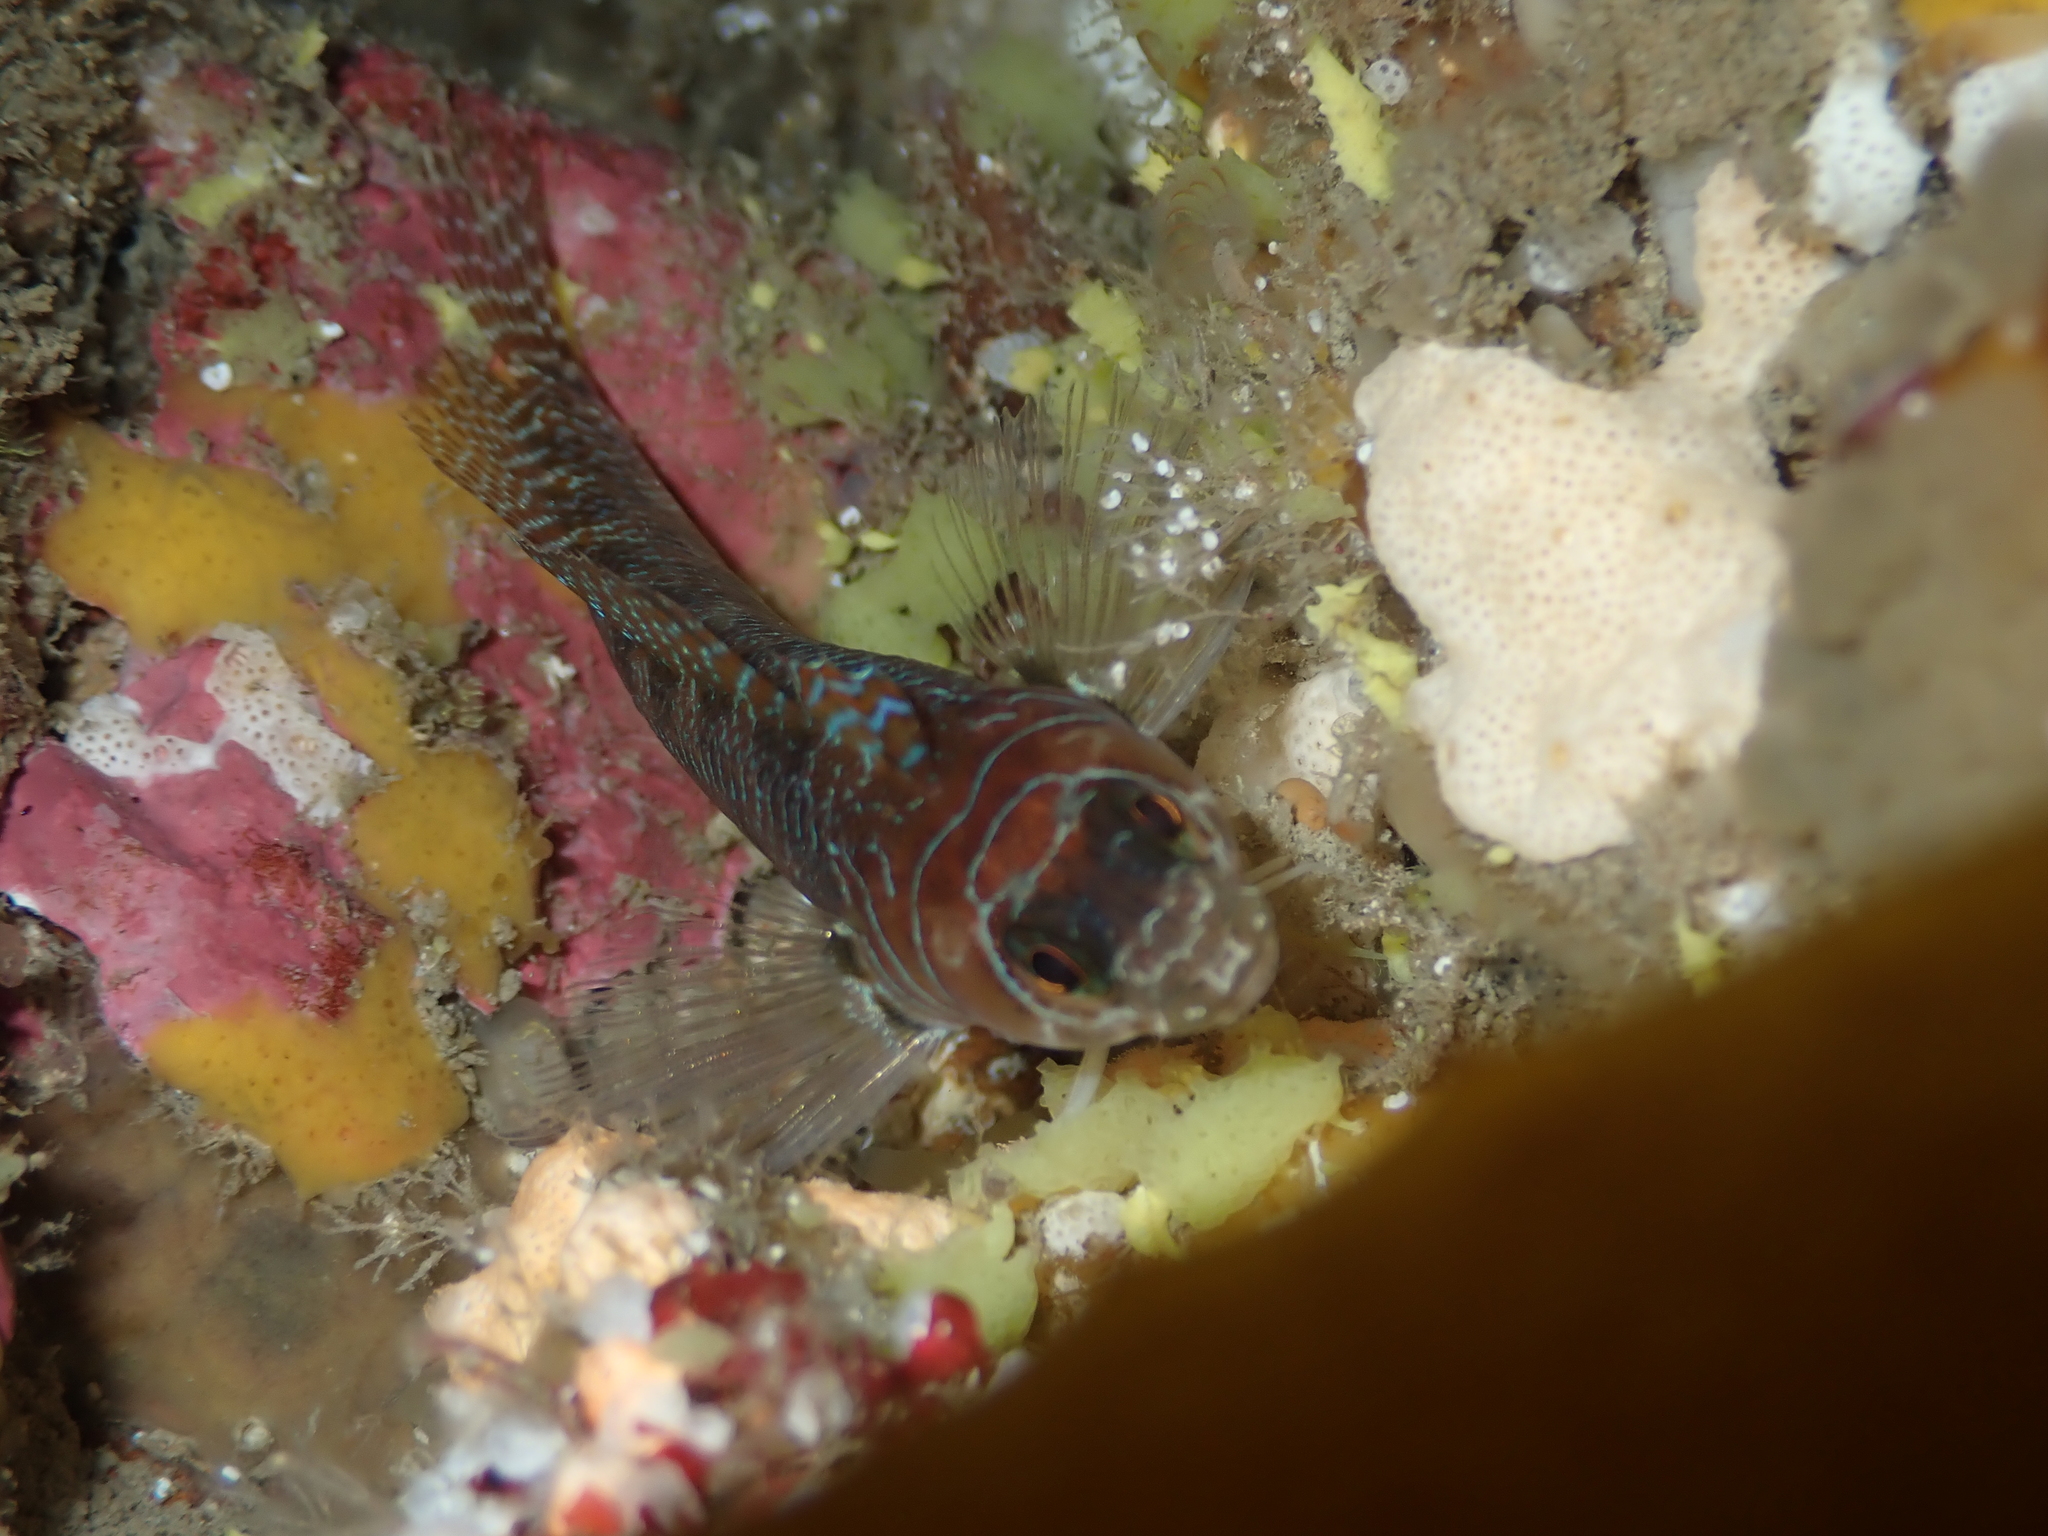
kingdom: Animalia
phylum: Chordata
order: Perciformes
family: Tripterygiidae
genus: Ruanoho
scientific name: Ruanoho whero
